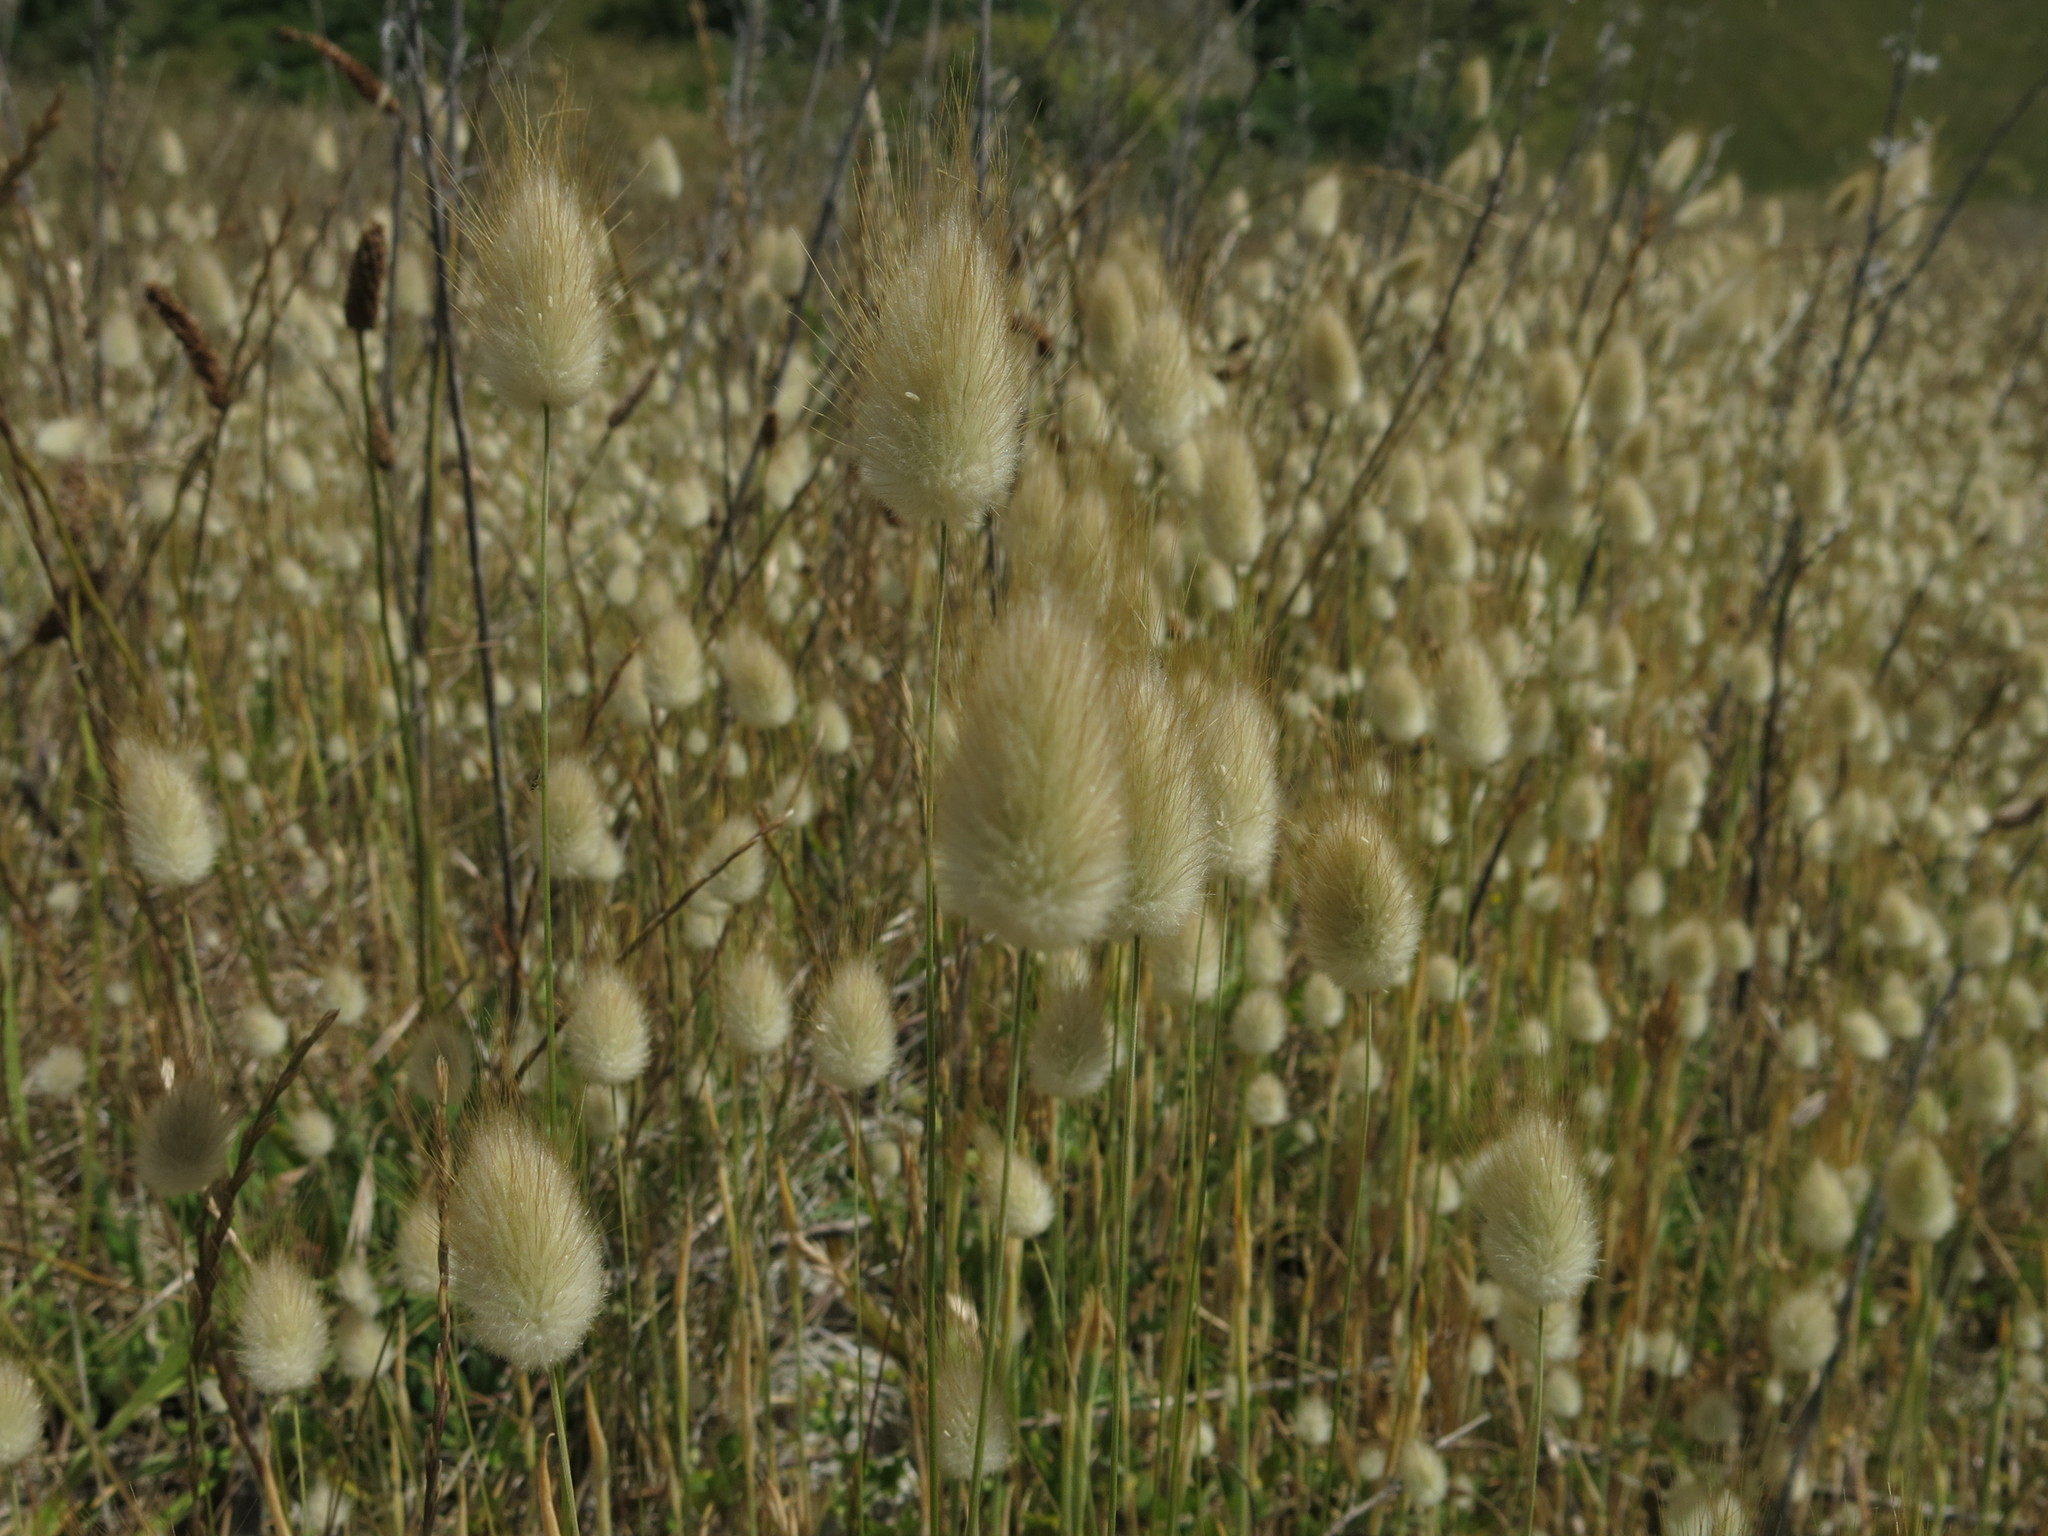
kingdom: Plantae
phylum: Tracheophyta
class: Liliopsida
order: Poales
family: Poaceae
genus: Lagurus
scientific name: Lagurus ovatus
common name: Hare's-tail
